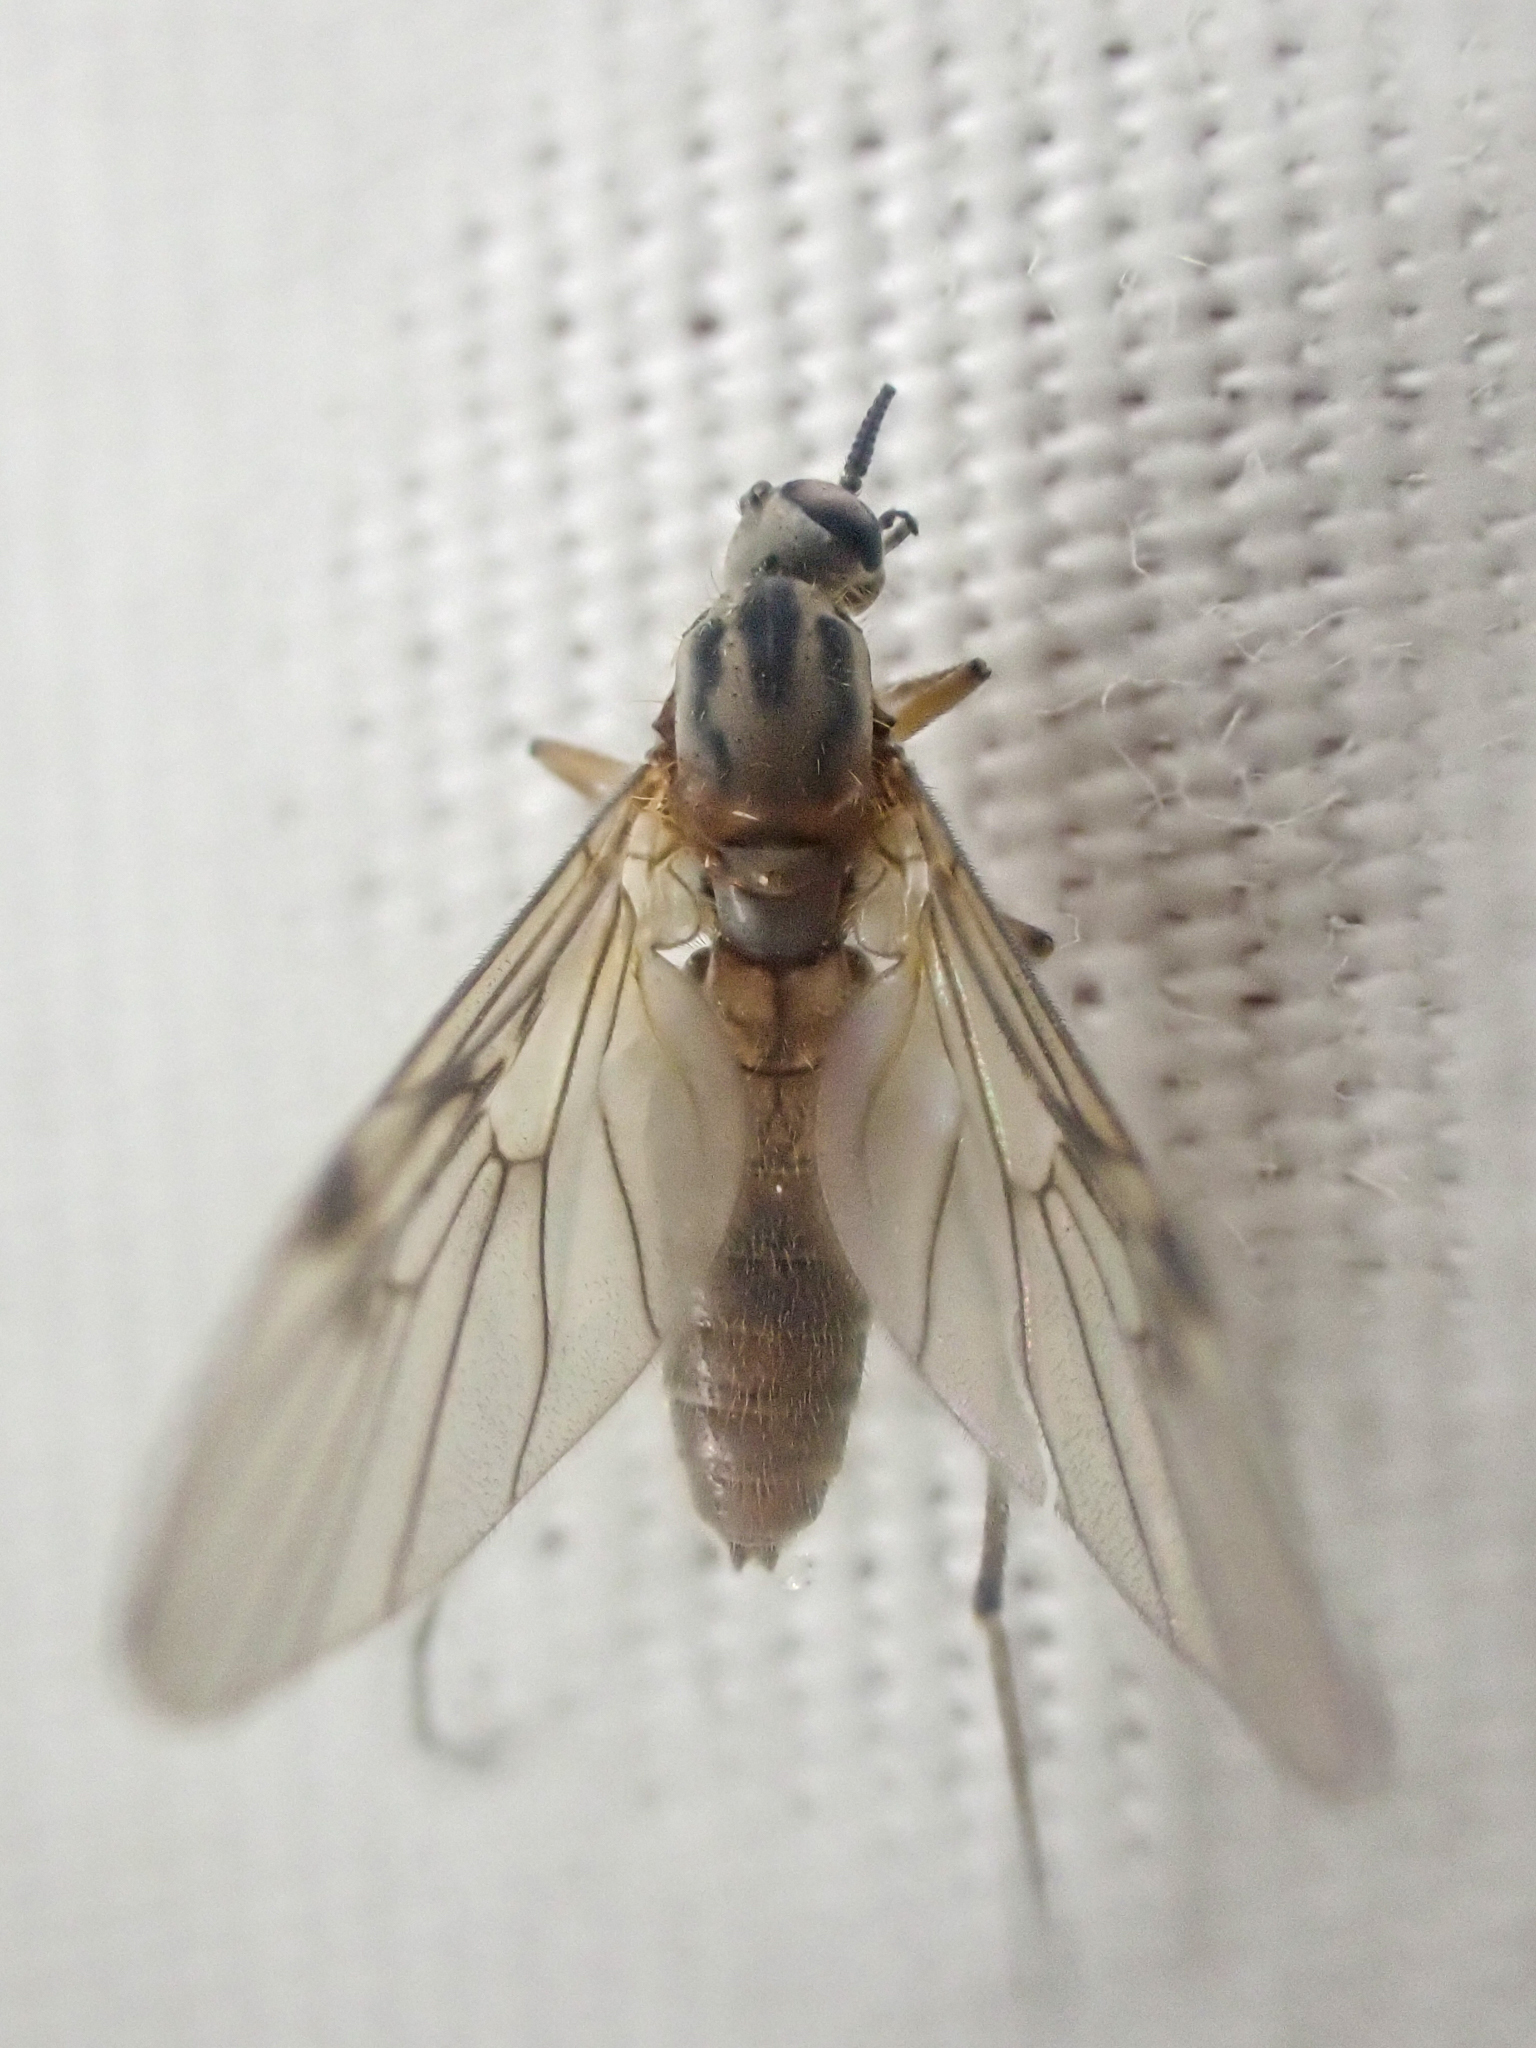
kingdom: Animalia
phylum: Arthropoda
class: Insecta
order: Diptera
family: Anisopodidae
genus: Sylvicola
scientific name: Sylvicola punctatus
